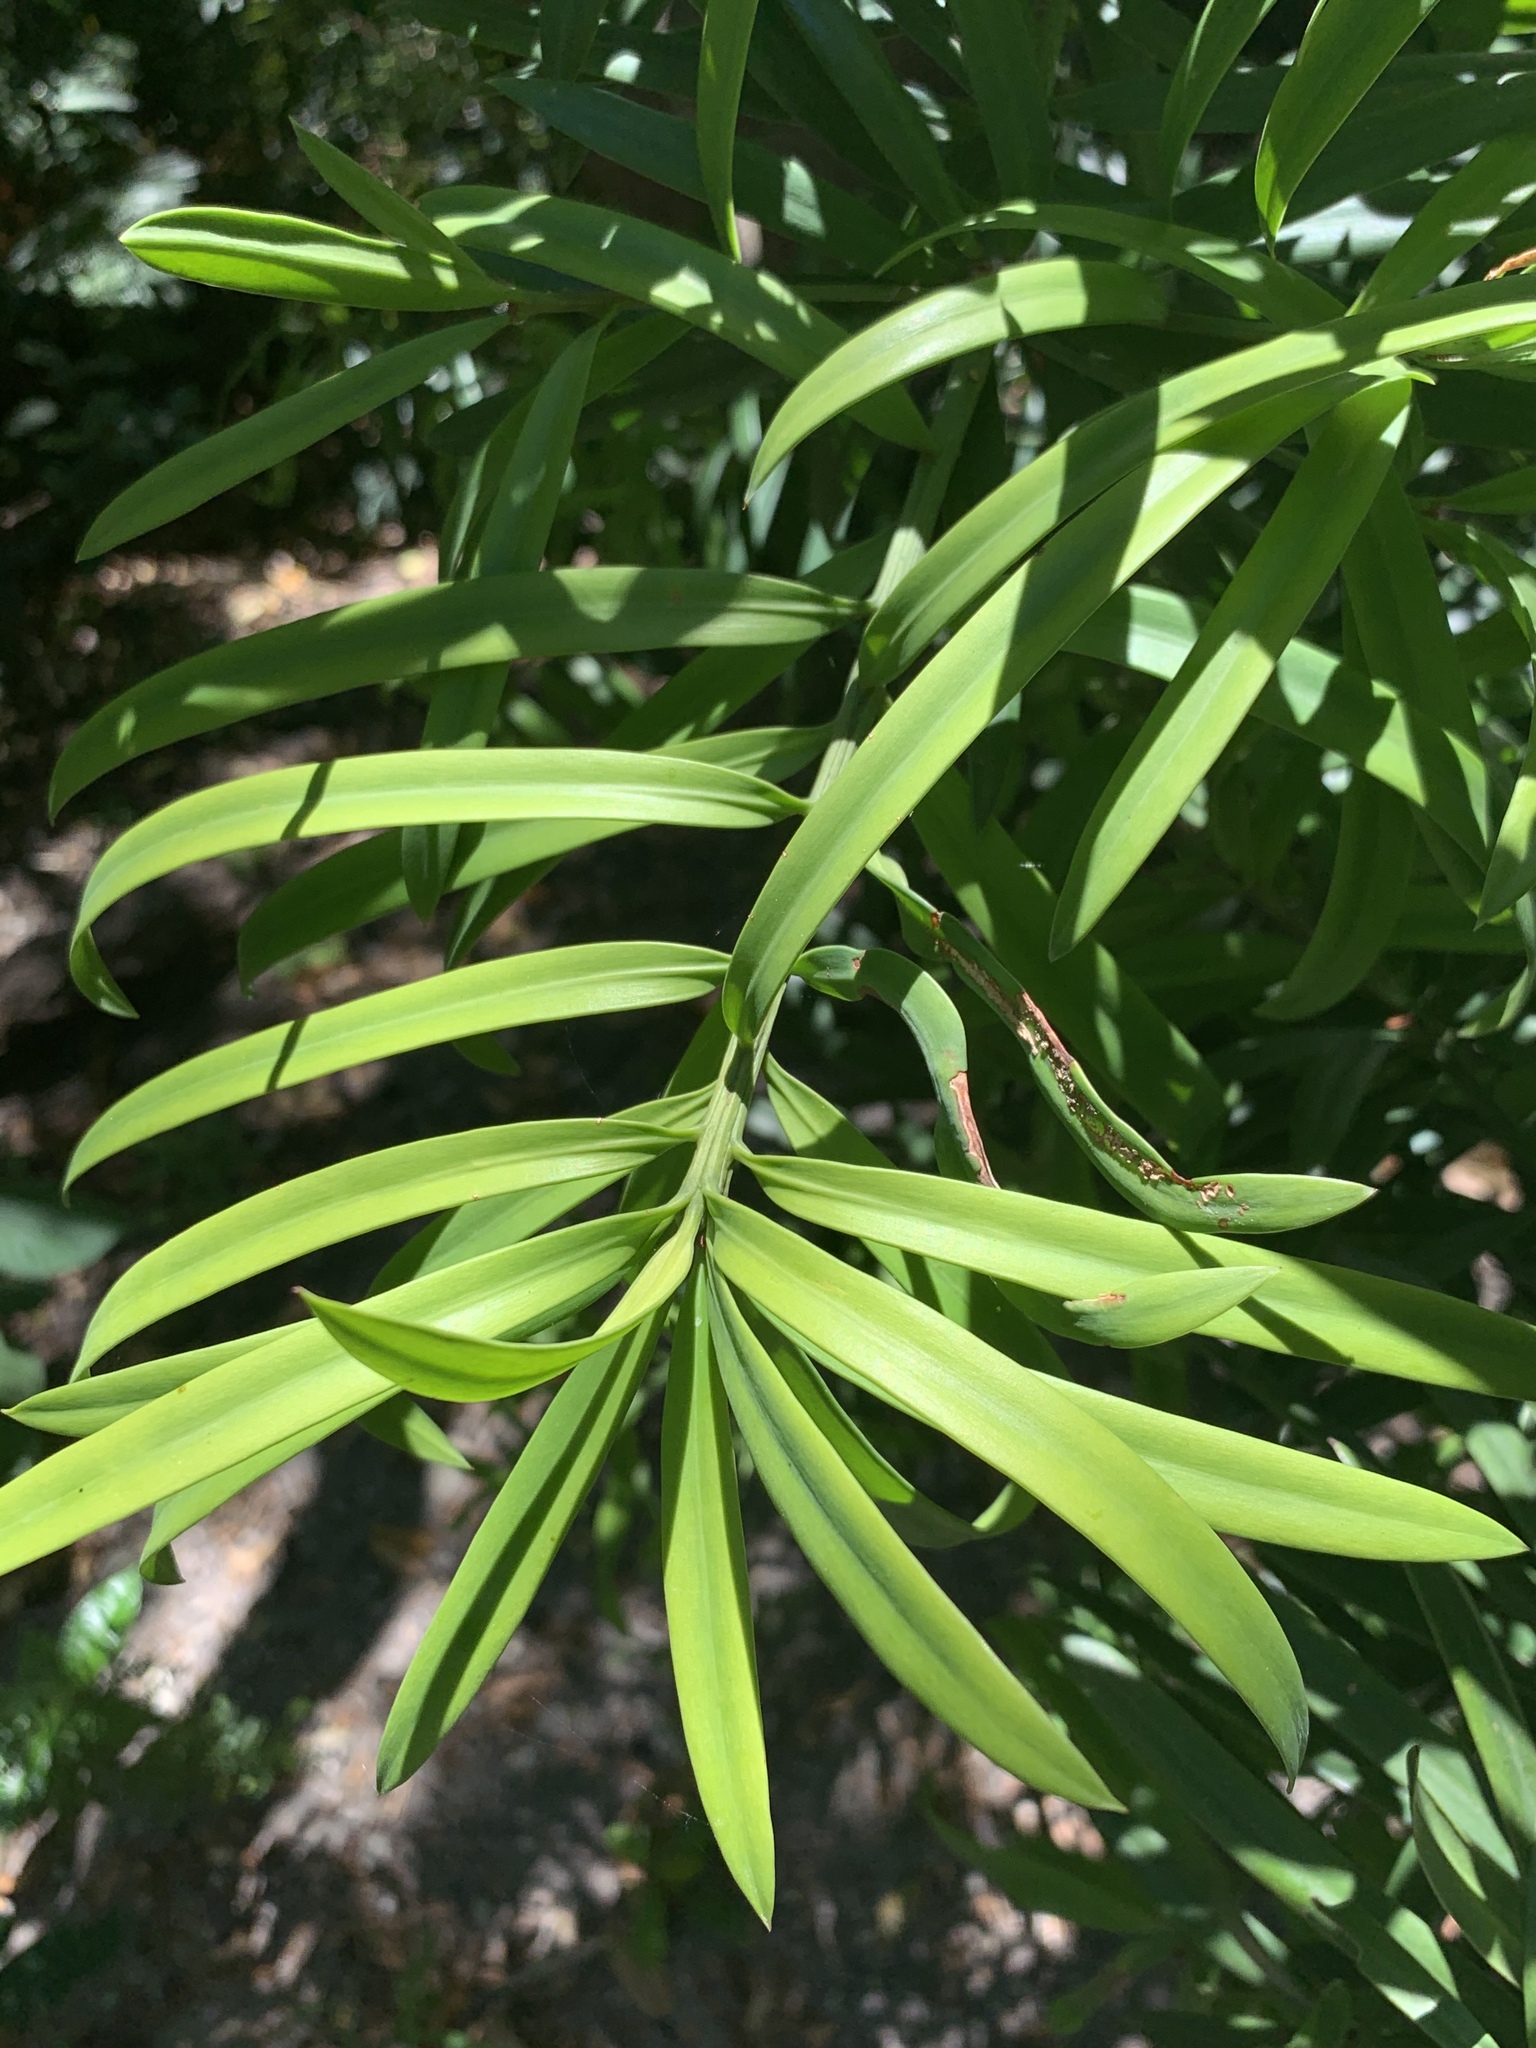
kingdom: Plantae
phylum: Tracheophyta
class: Pinopsida
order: Pinales
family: Podocarpaceae
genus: Podocarpus
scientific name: Podocarpus latifolius
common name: True yellowwood
